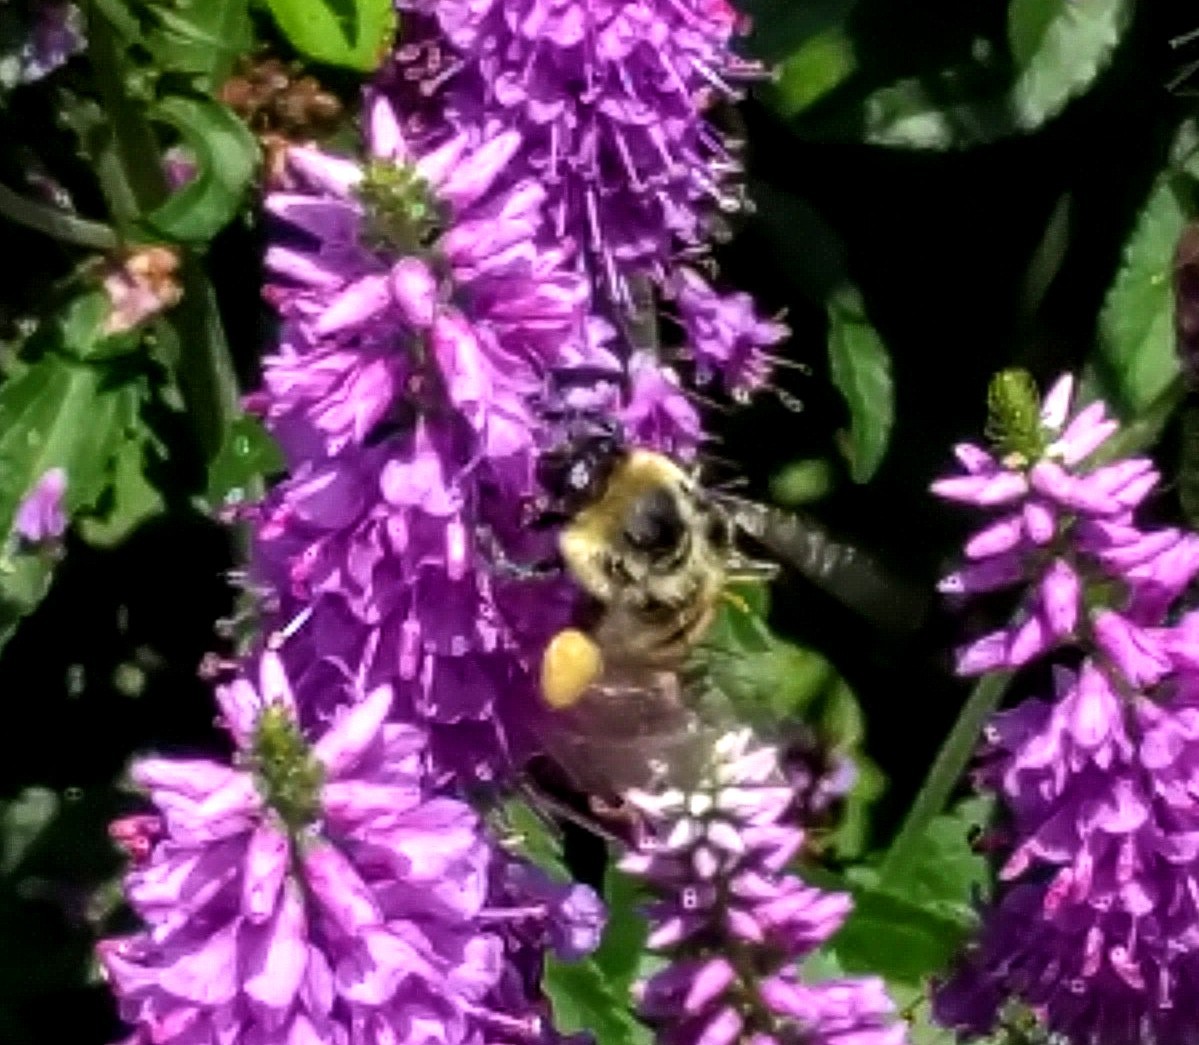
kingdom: Animalia
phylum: Arthropoda
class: Insecta
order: Hymenoptera
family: Apidae
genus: Bombus
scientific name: Bombus griseocollis
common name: Brown-belted bumble bee
